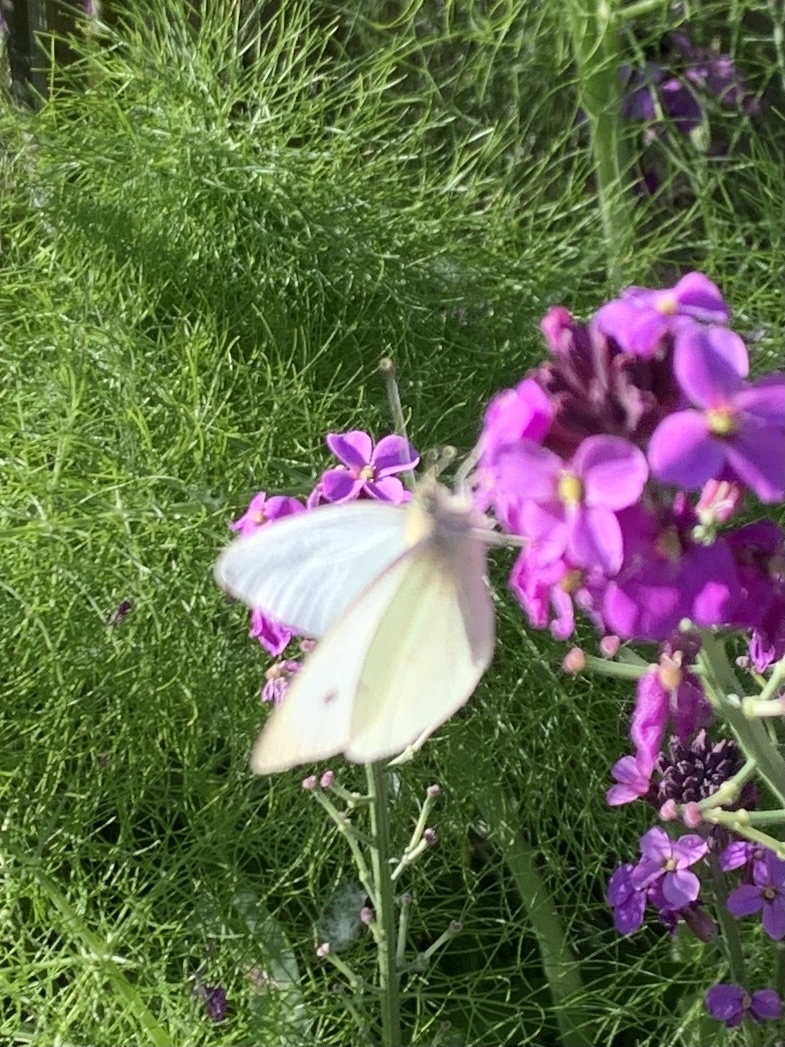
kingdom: Animalia
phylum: Arthropoda
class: Insecta
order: Lepidoptera
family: Pieridae
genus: Pieris
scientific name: Pieris rapae
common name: Small white
